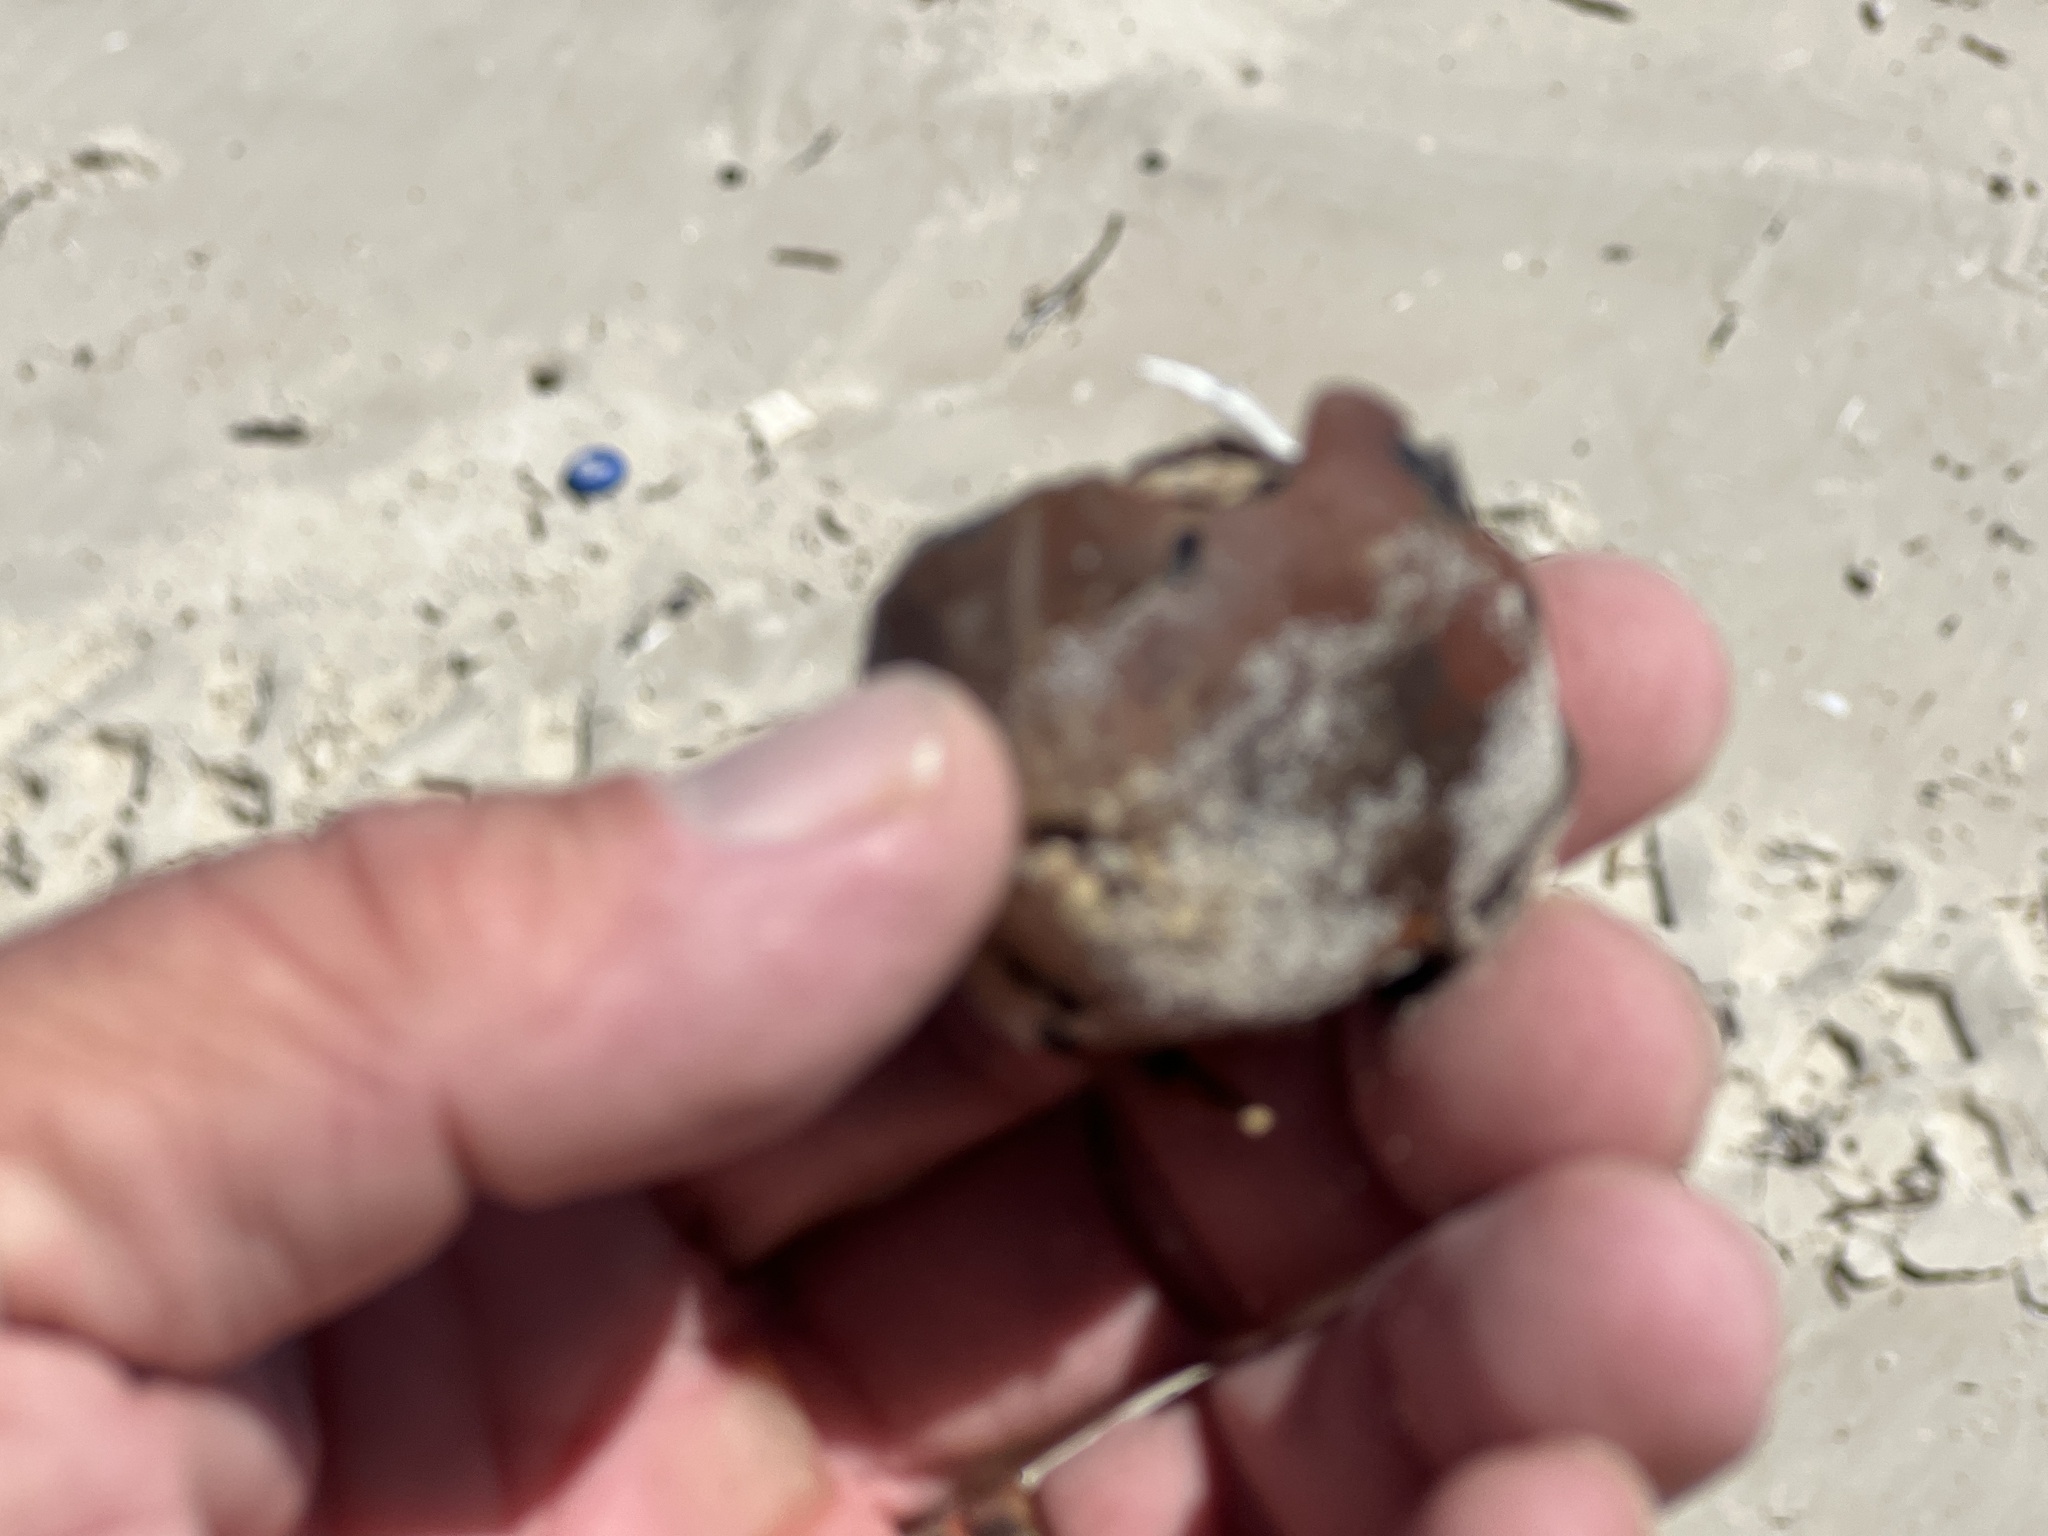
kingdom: Plantae
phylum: Tracheophyta
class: Liliopsida
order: Arecales
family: Arecaceae
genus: Manicaria
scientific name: Manicaria saccifera
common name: Sea coconut
